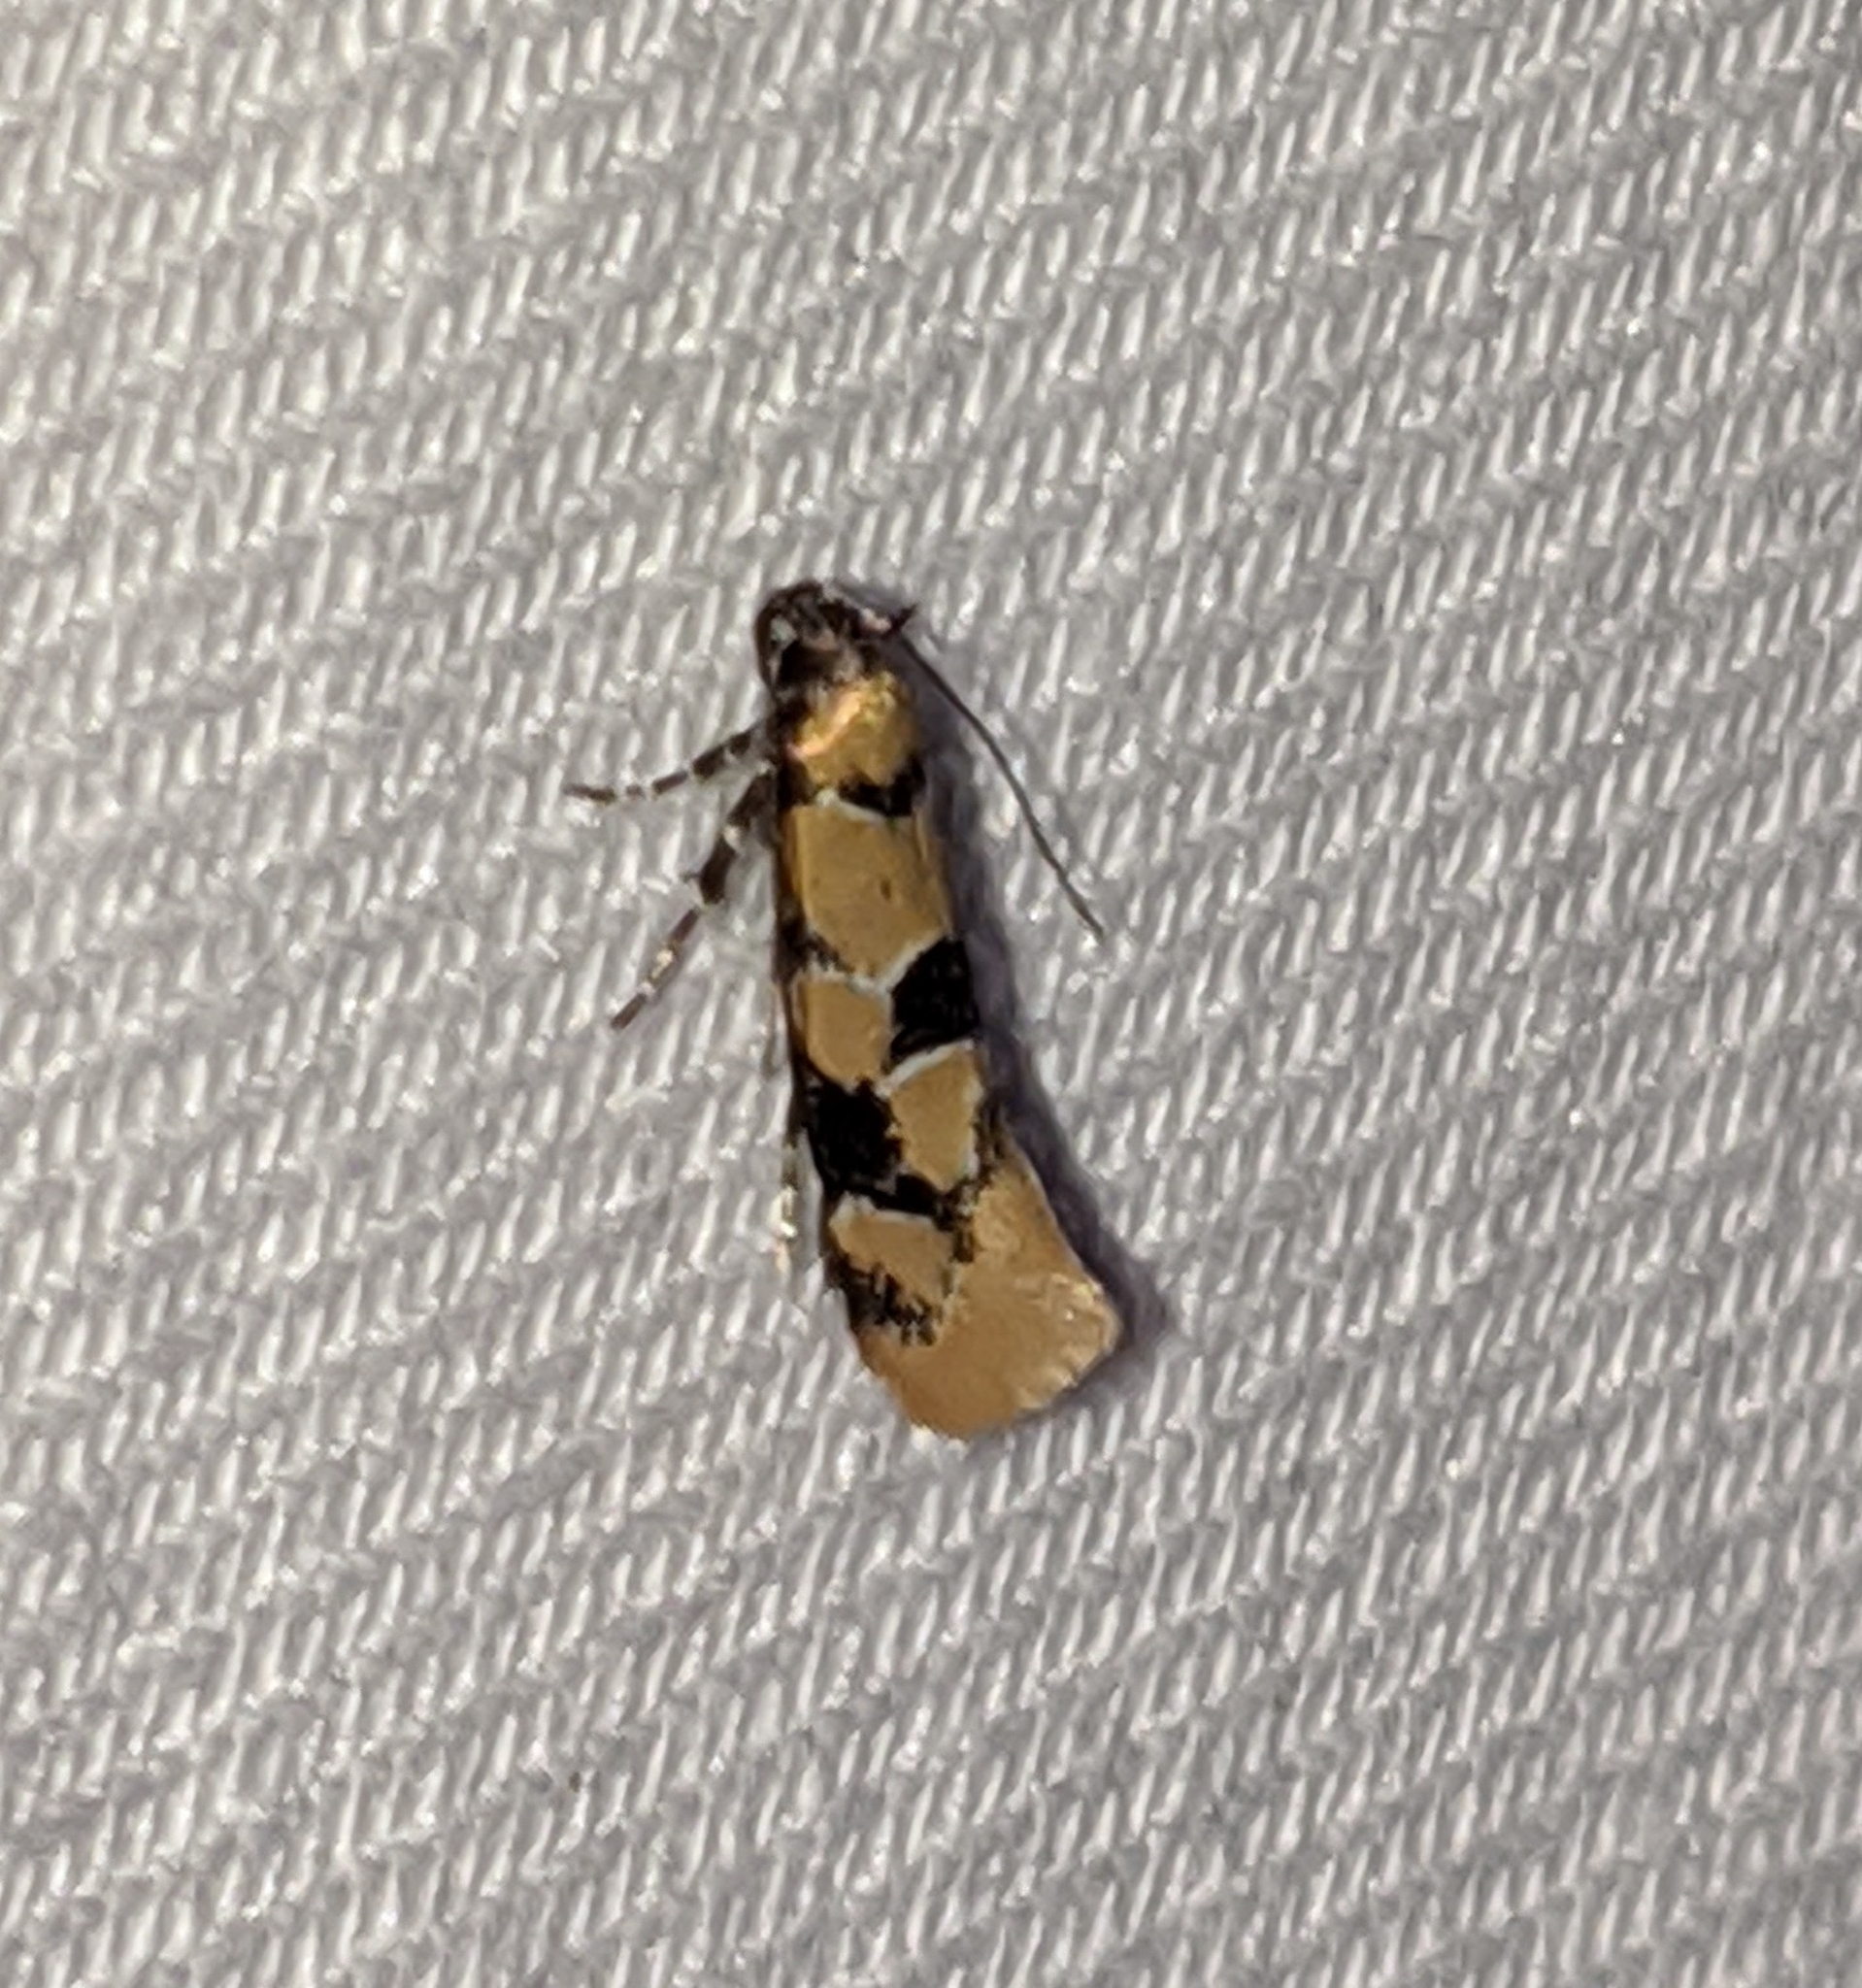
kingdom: Animalia
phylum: Arthropoda
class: Insecta
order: Lepidoptera
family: Oecophoridae
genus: Decantha
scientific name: Decantha stonda
